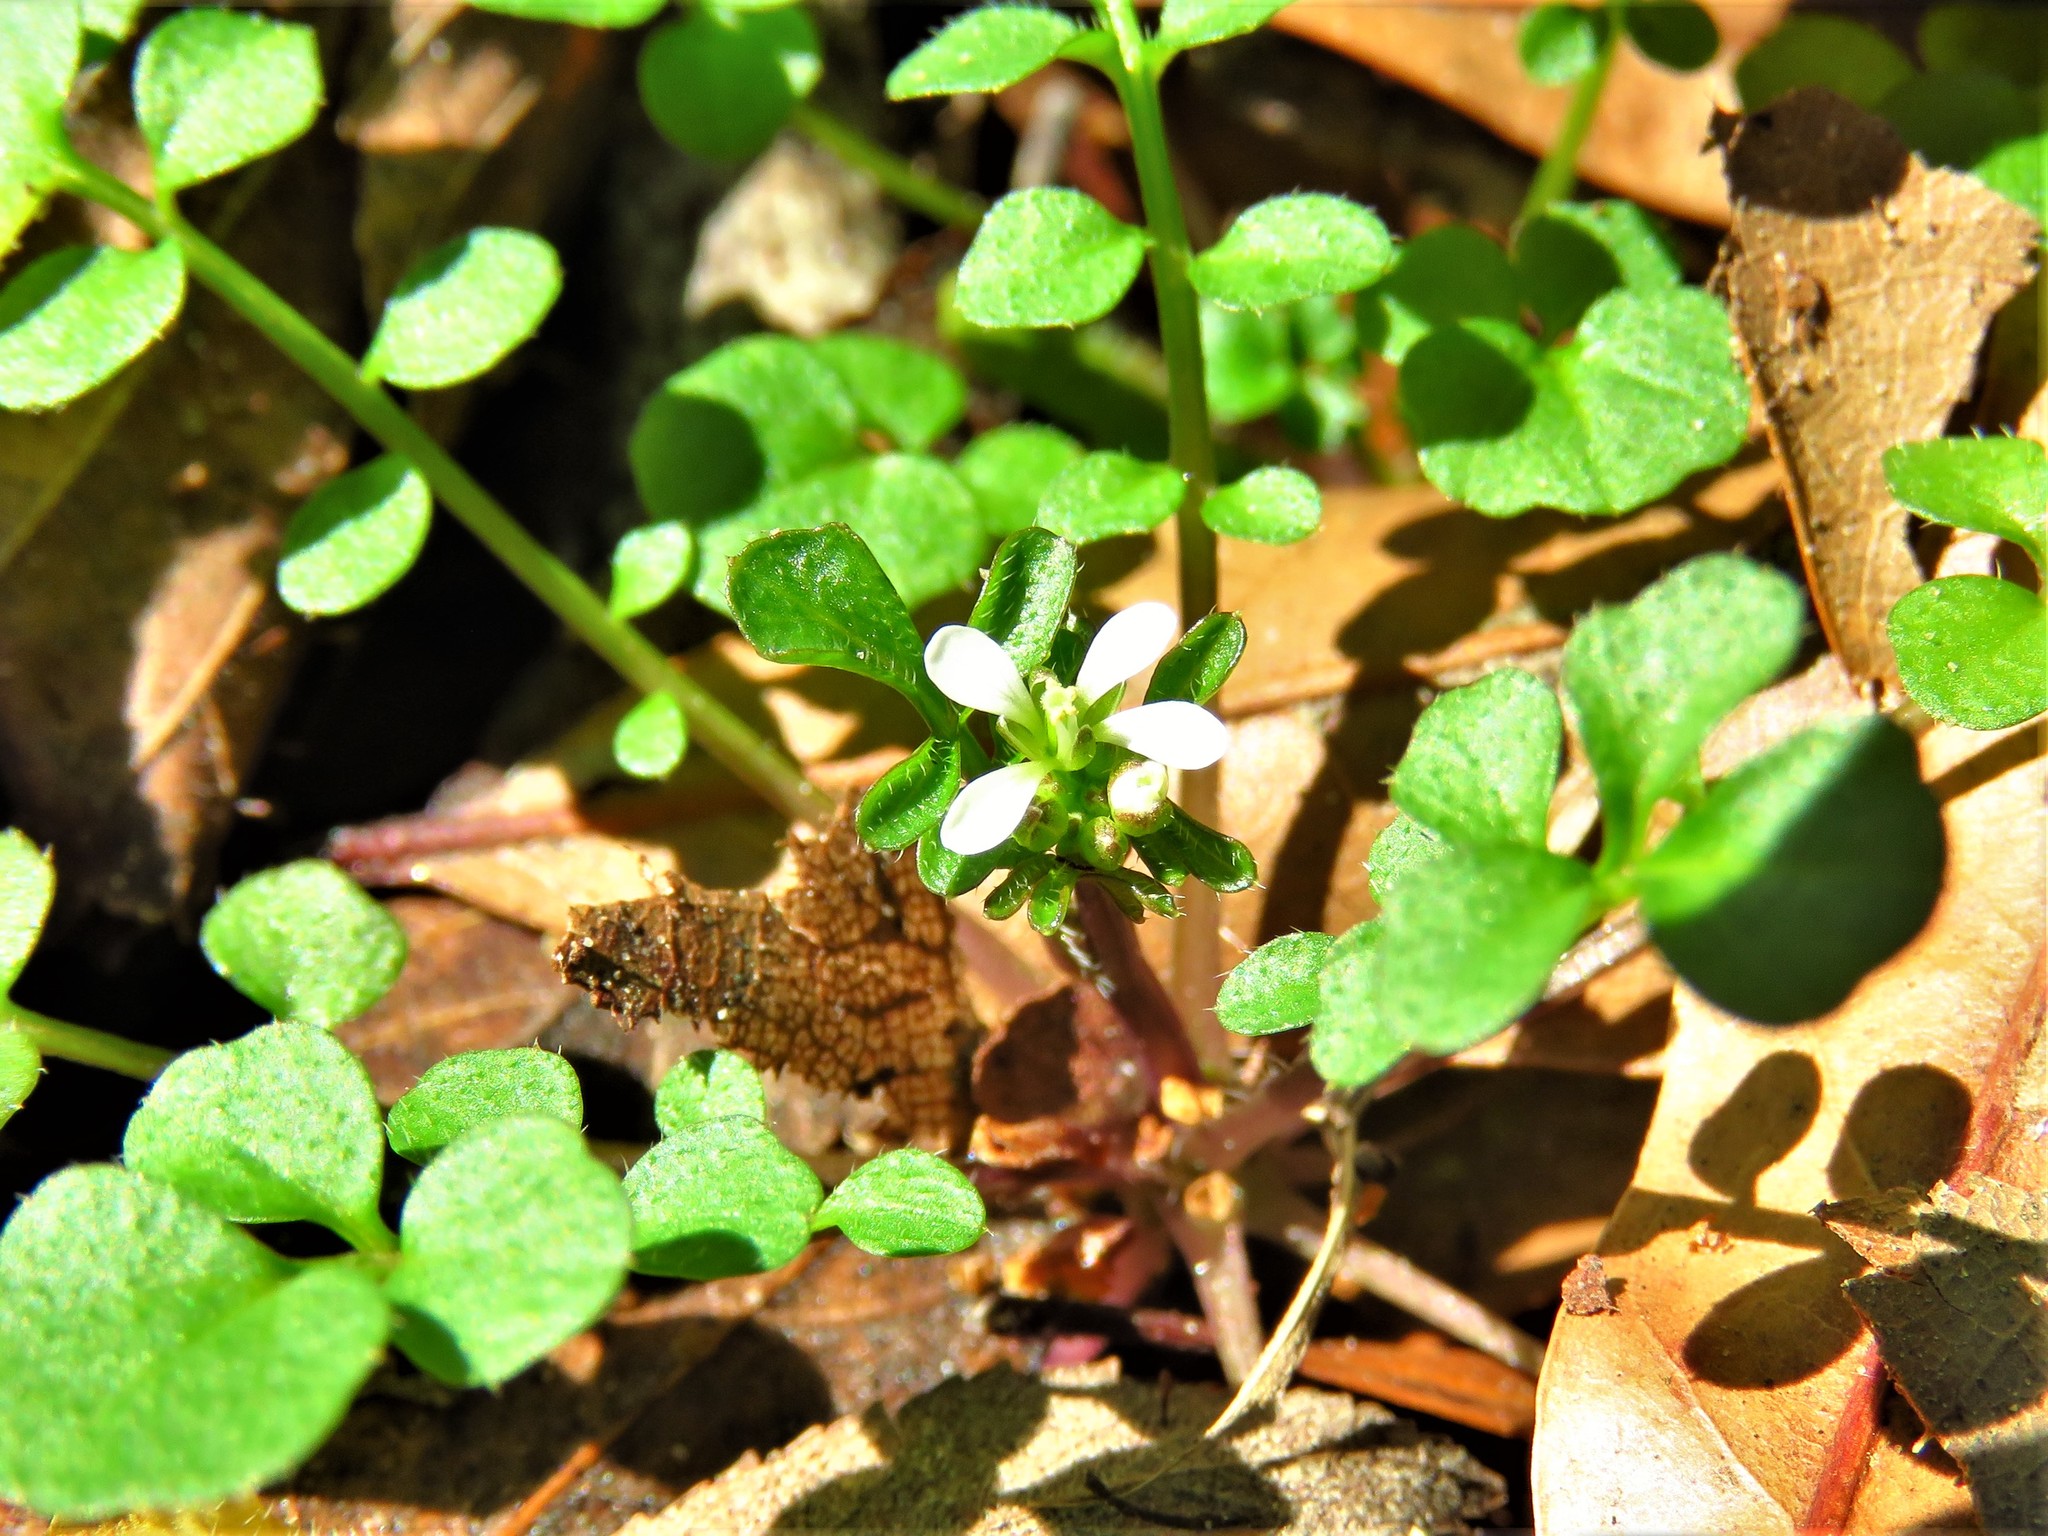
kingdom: Plantae
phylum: Tracheophyta
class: Magnoliopsida
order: Brassicales
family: Brassicaceae
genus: Cardamine
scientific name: Cardamine hirsuta
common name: Hairy bittercress
